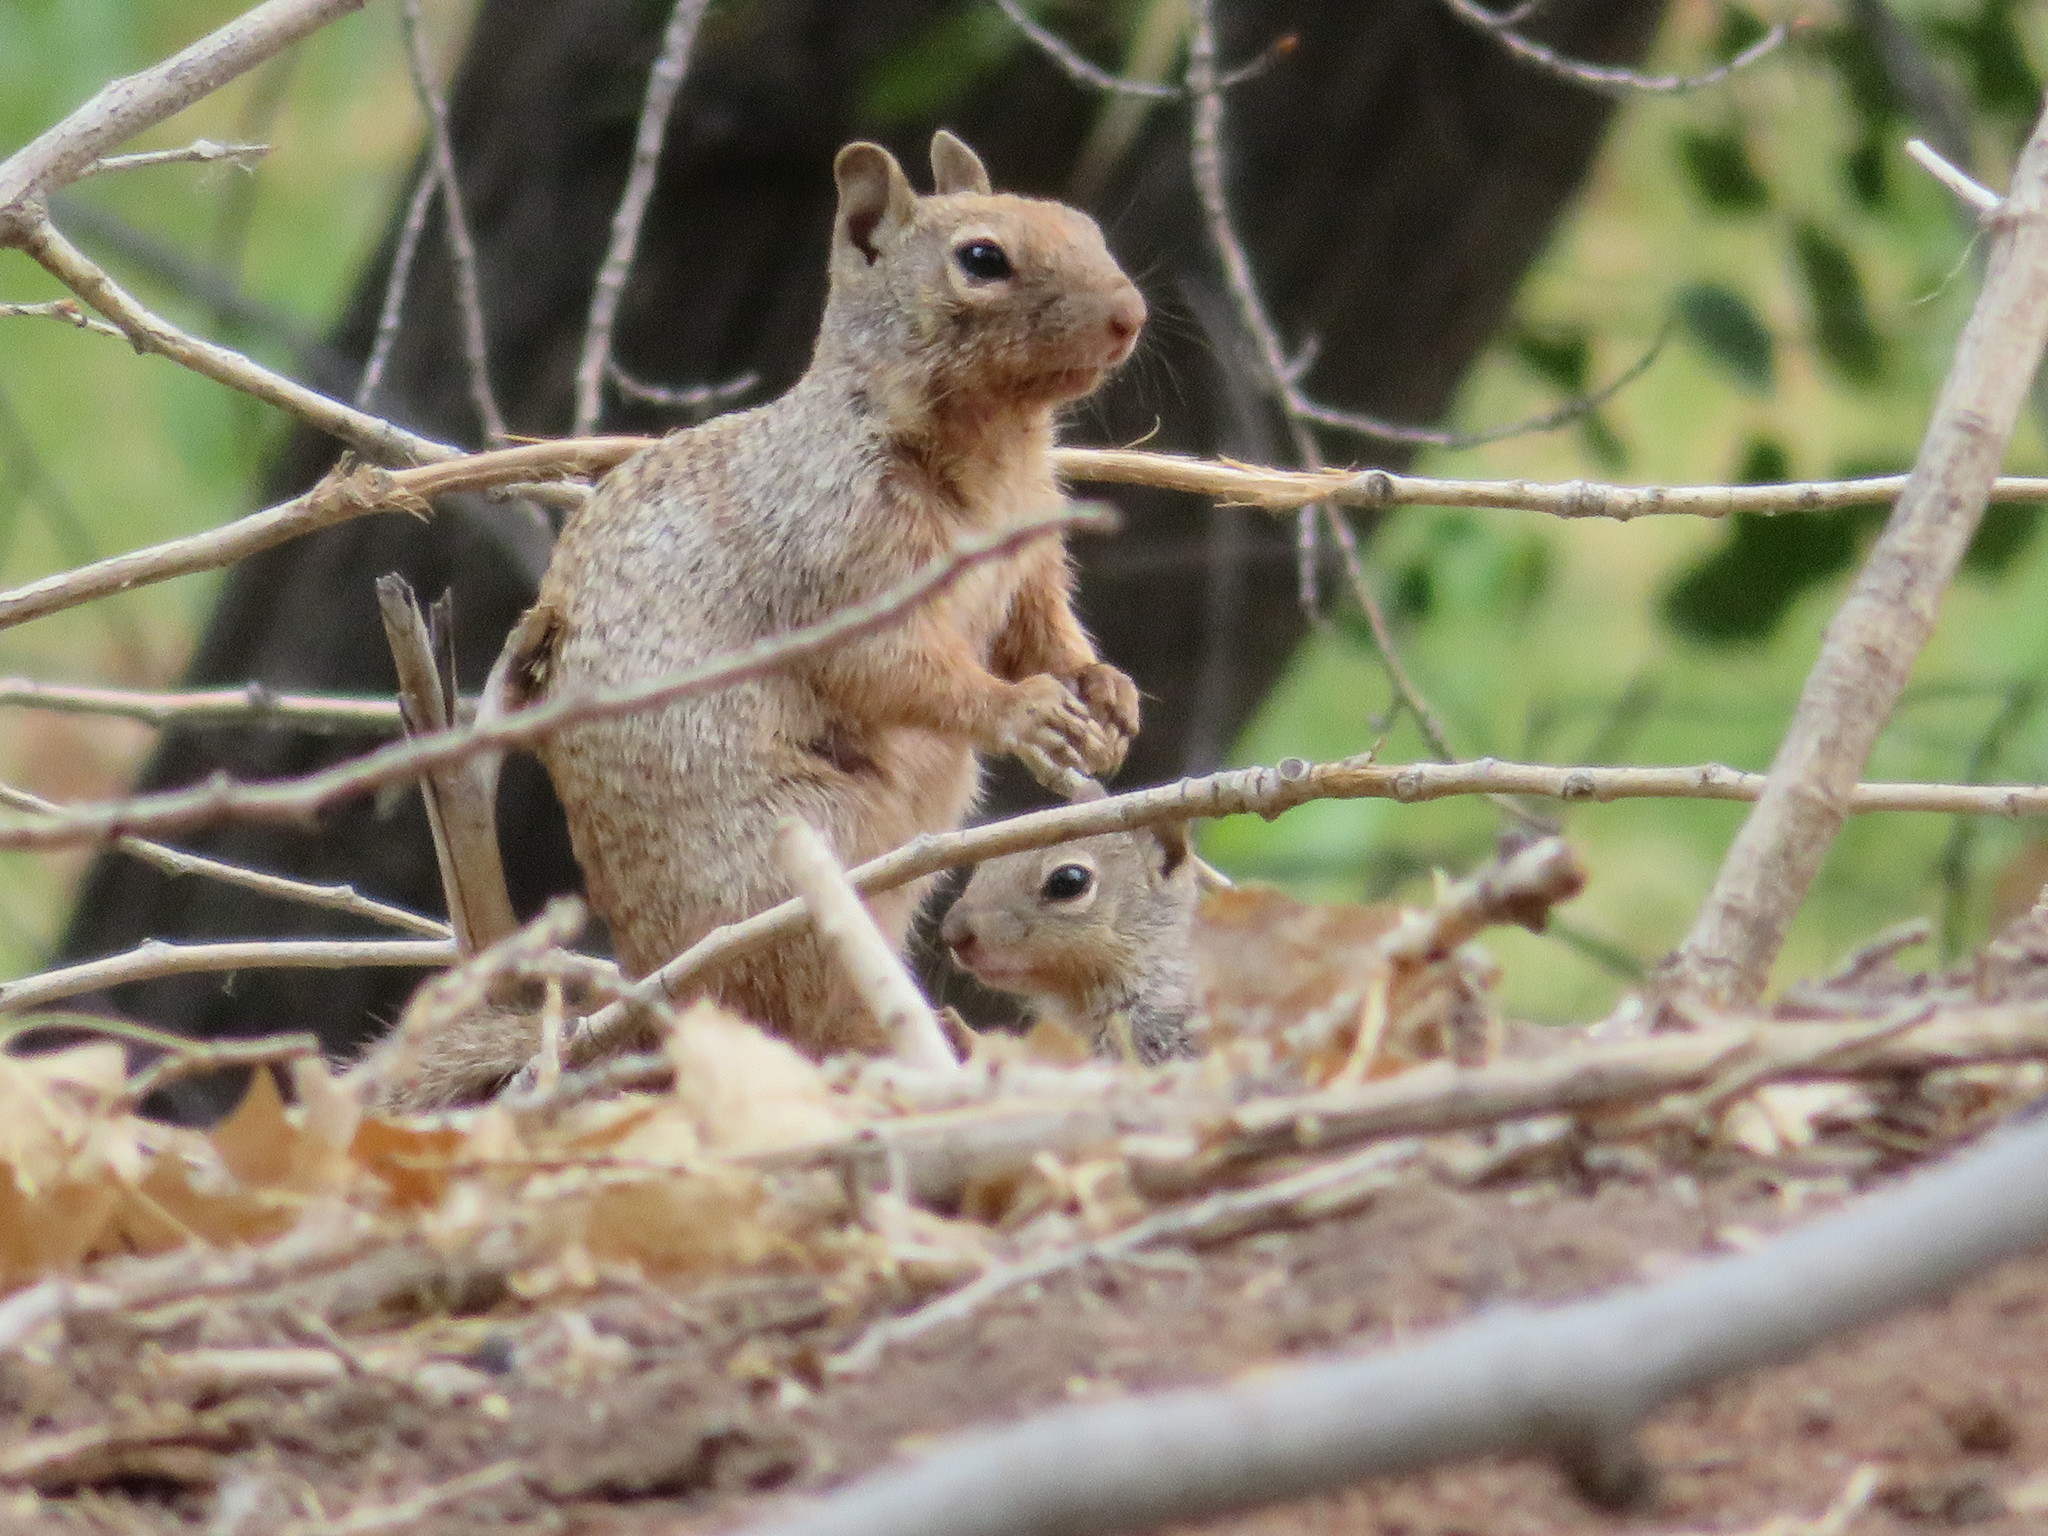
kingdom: Animalia
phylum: Chordata
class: Mammalia
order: Rodentia
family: Sciuridae
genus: Otospermophilus
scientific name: Otospermophilus variegatus
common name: Rock squirrel
